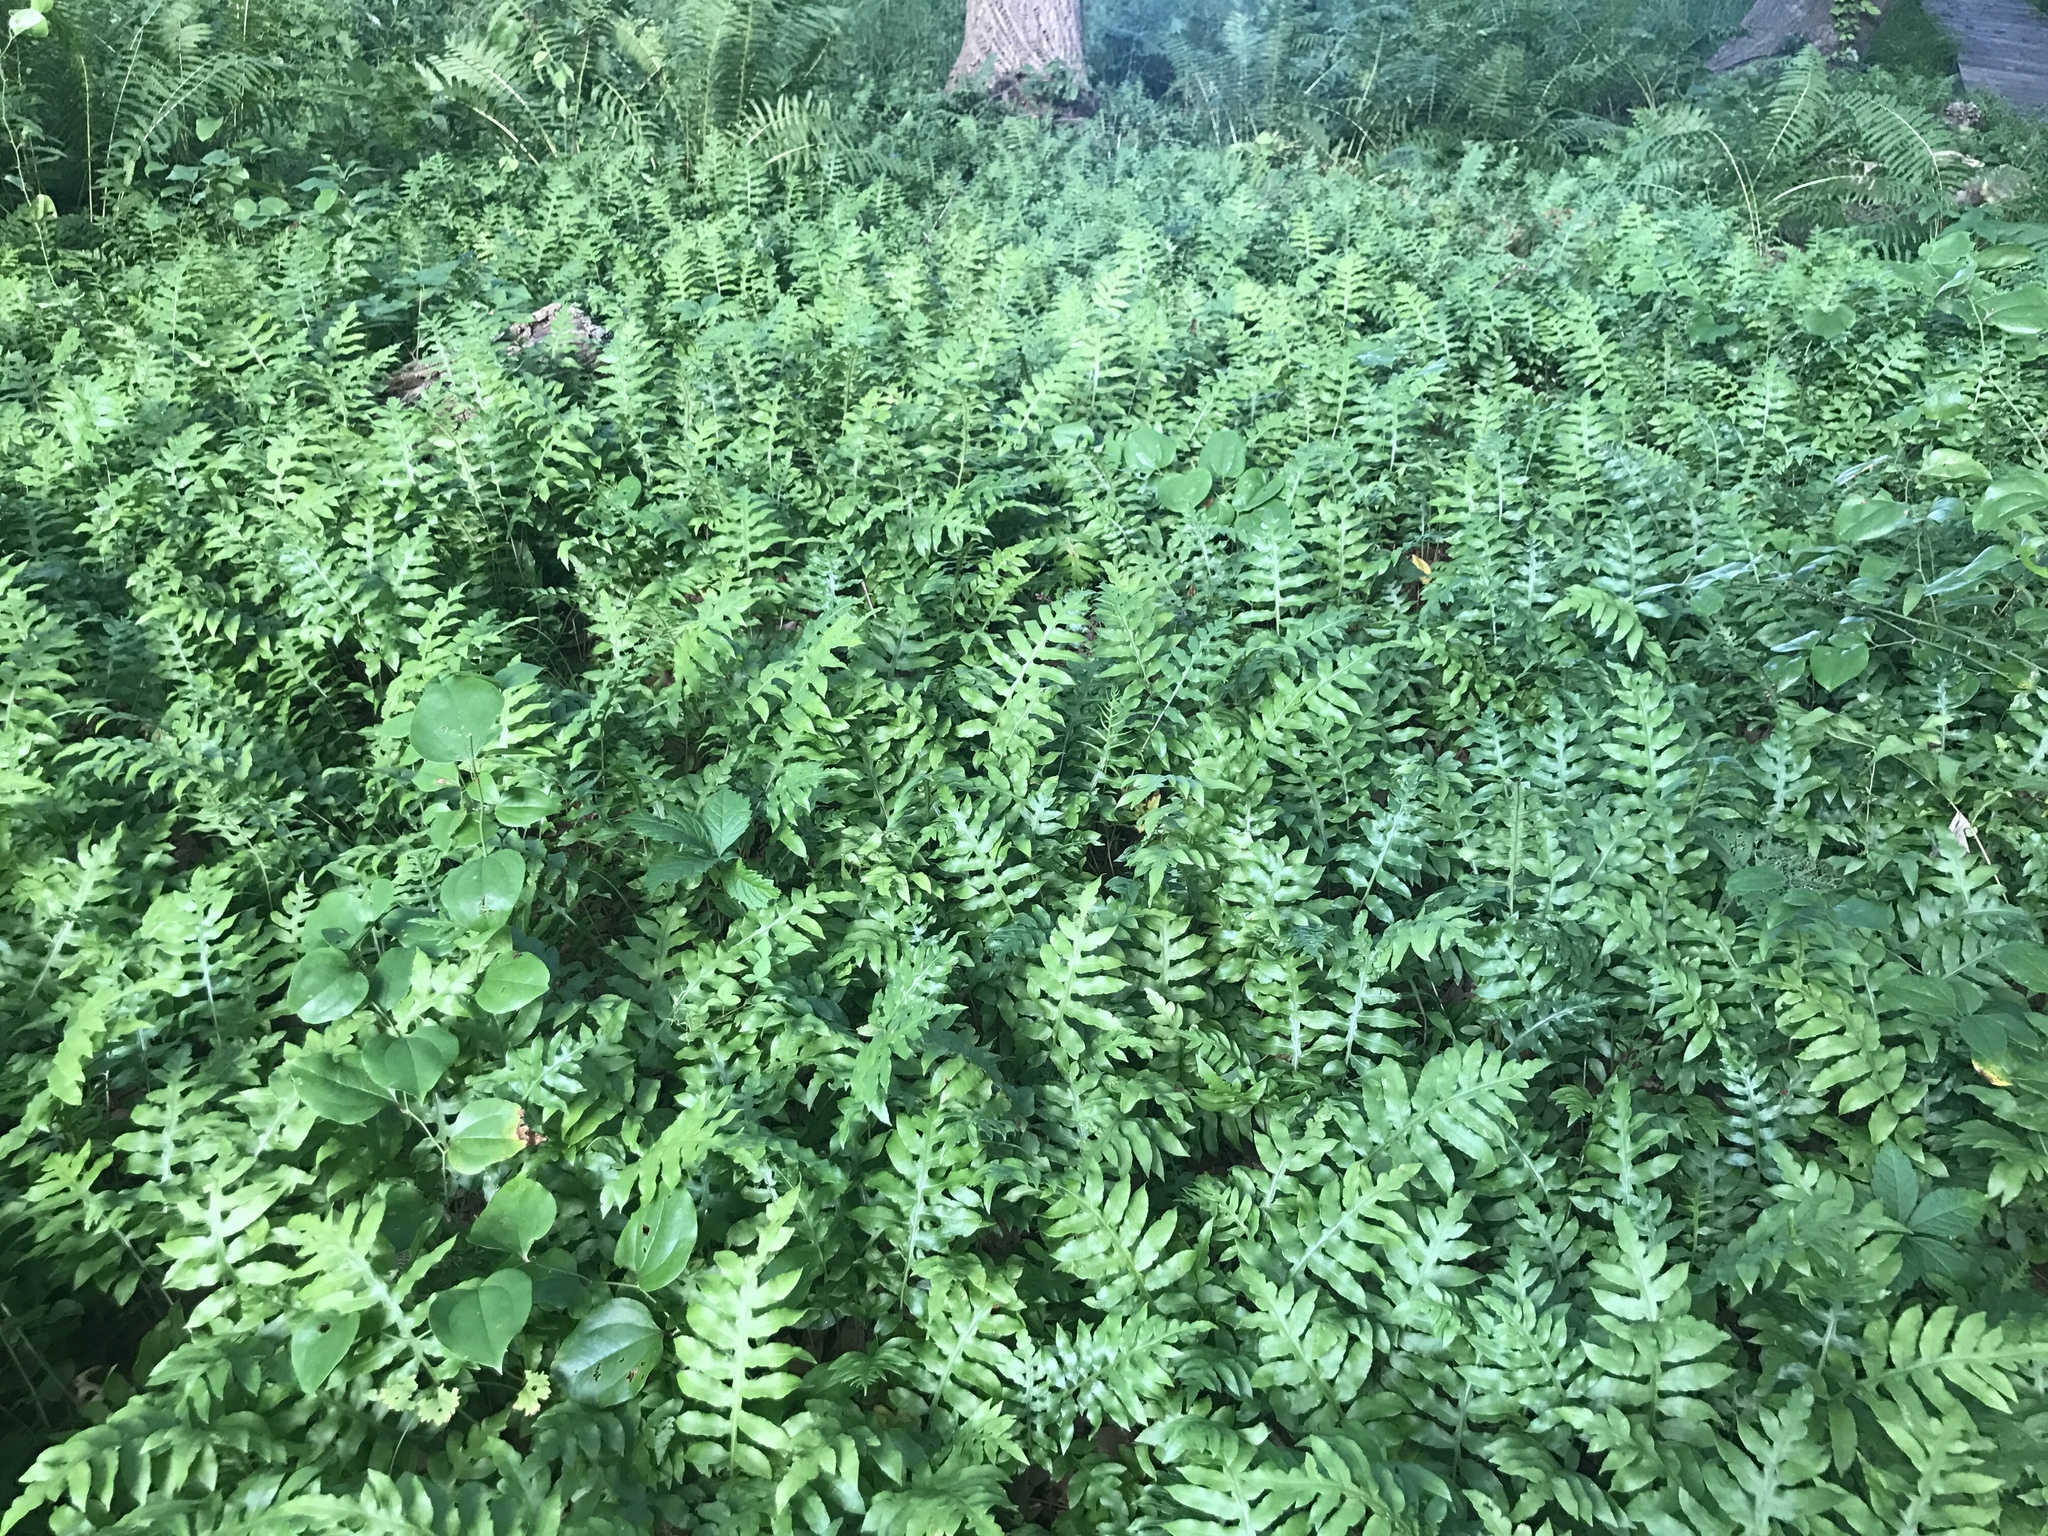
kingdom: Plantae
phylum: Tracheophyta
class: Polypodiopsida
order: Polypodiales
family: Blechnaceae
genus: Lorinseria
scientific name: Lorinseria areolata
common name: Dwarf chain fern
